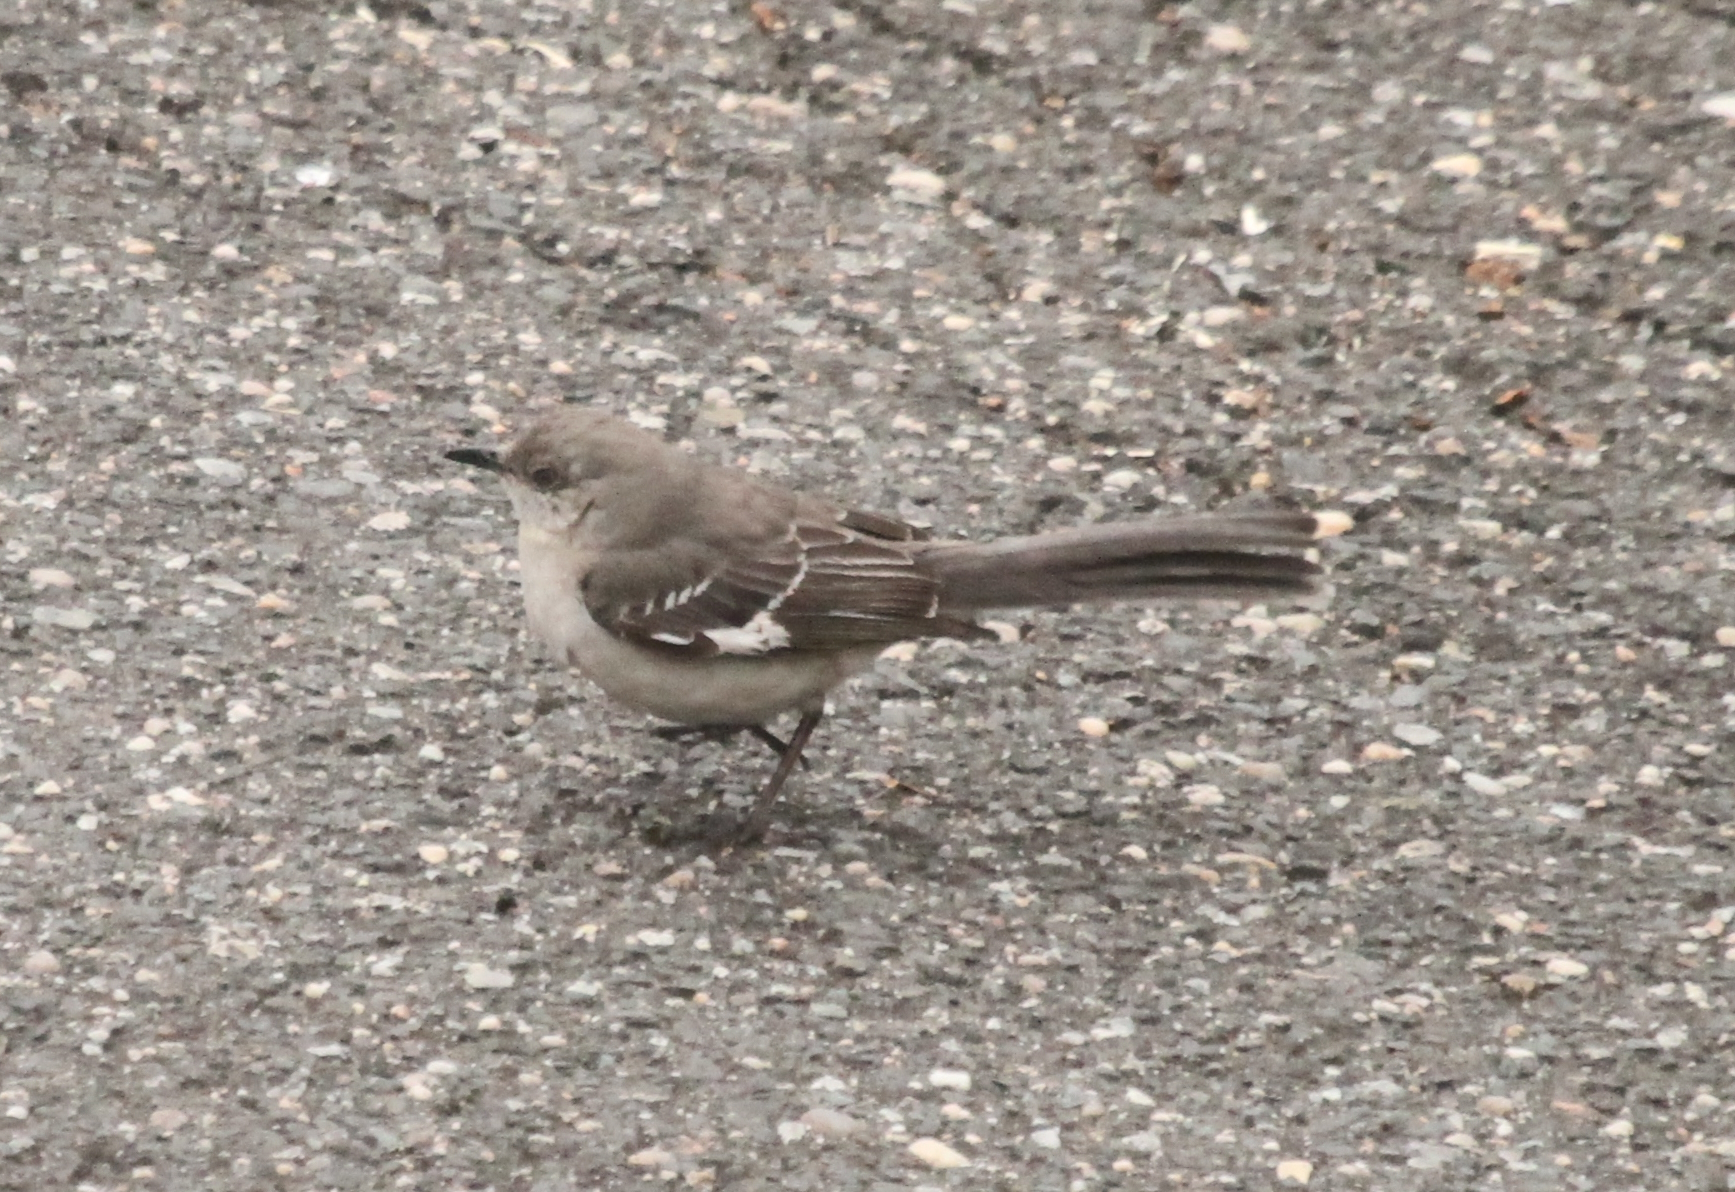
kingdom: Animalia
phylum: Chordata
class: Aves
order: Passeriformes
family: Mimidae
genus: Mimus
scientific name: Mimus polyglottos
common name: Northern mockingbird
